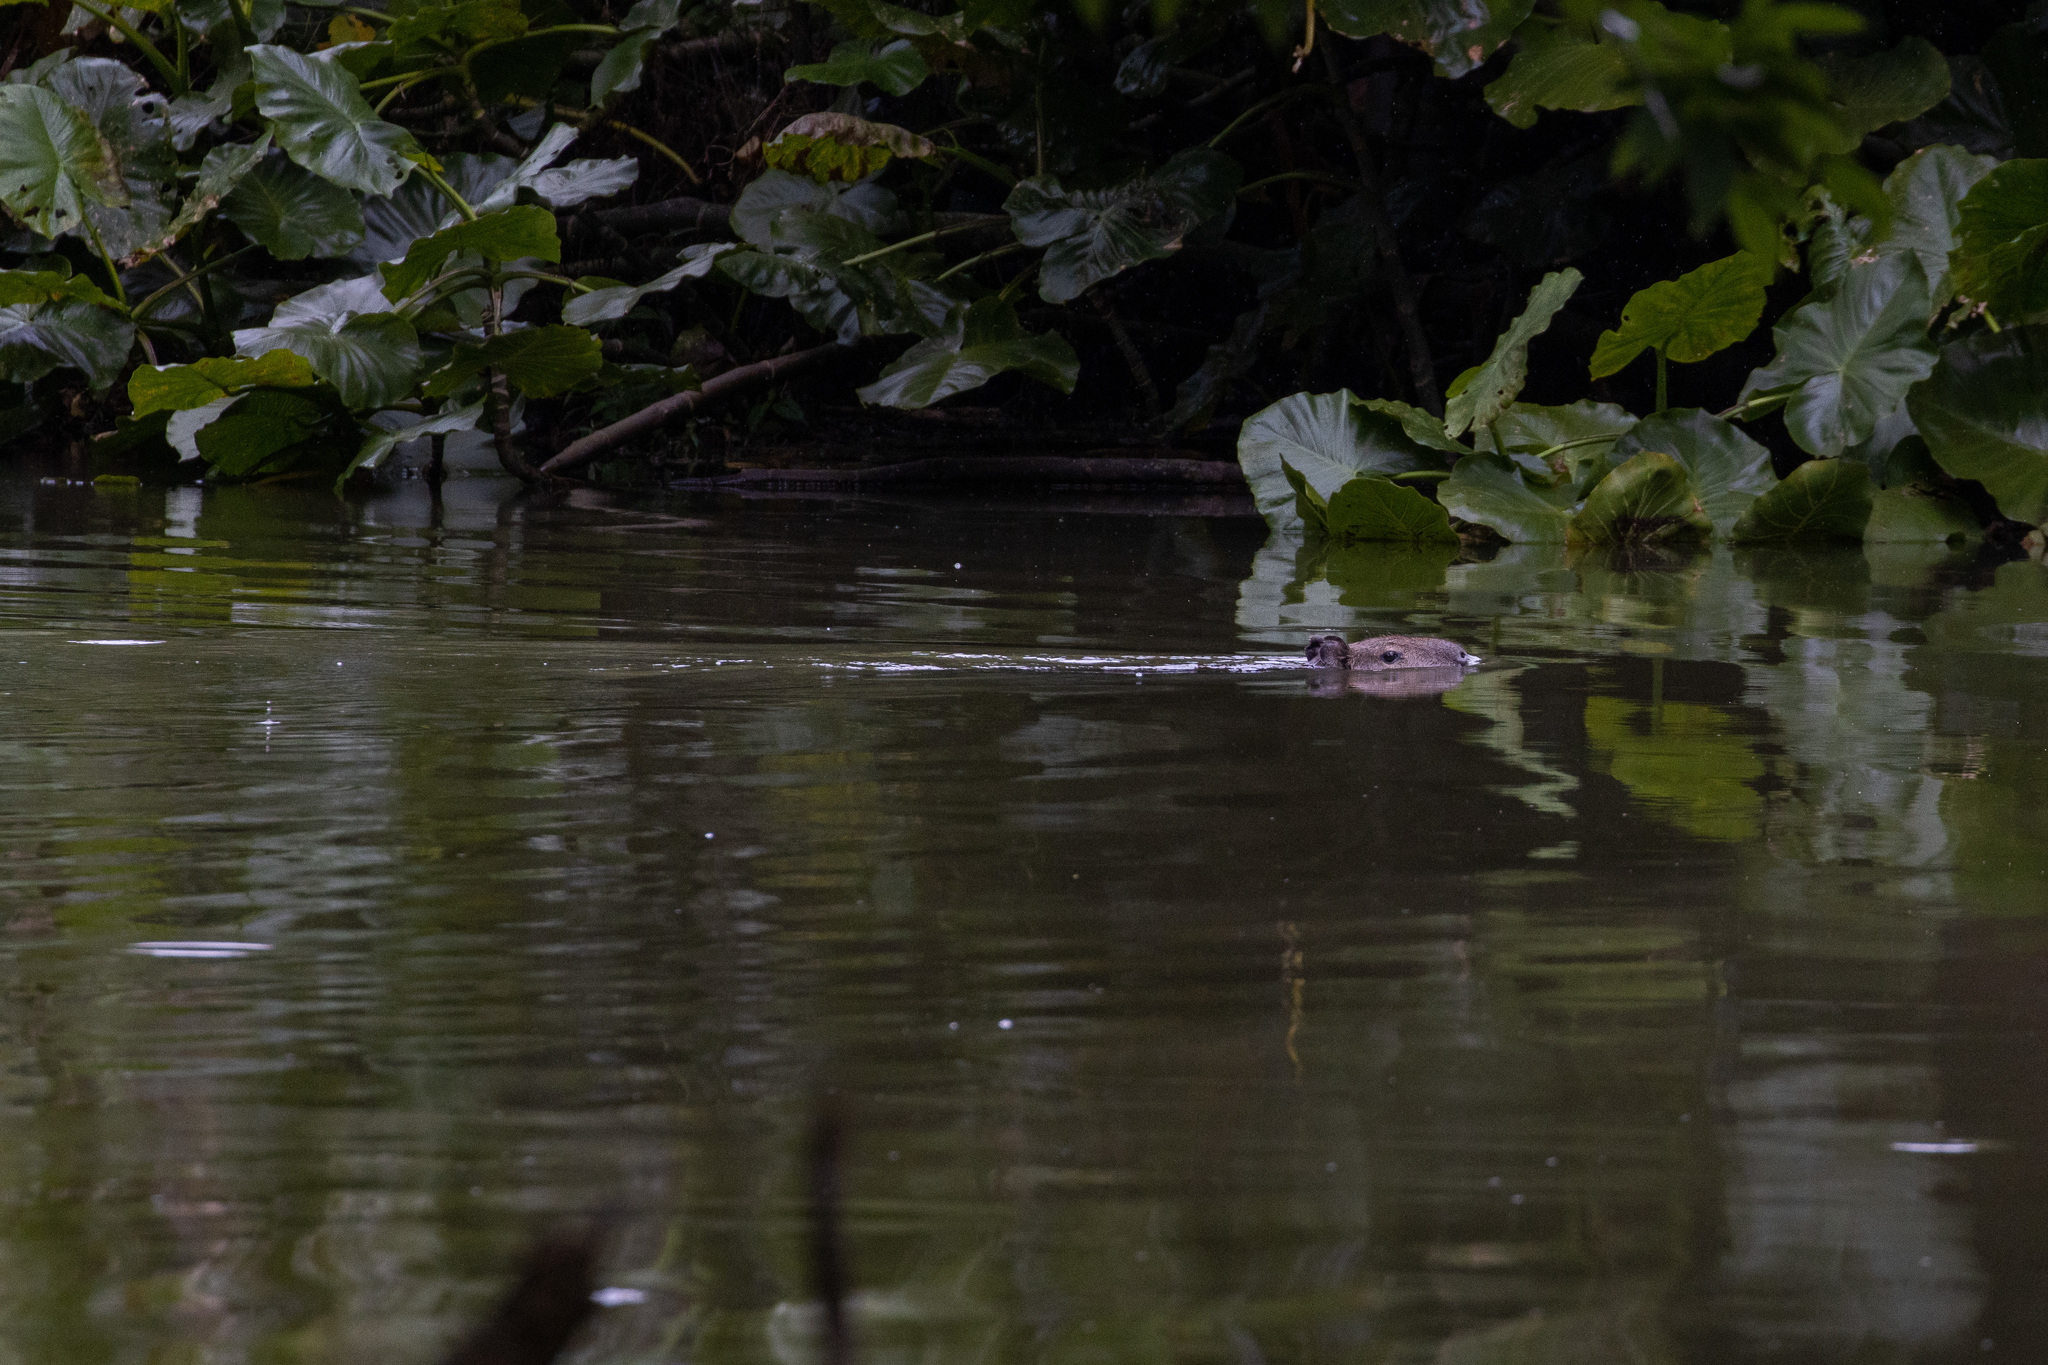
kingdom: Animalia
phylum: Chordata
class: Mammalia
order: Rodentia
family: Caviidae
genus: Hydrochoerus
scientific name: Hydrochoerus hydrochaeris
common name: Capybara
